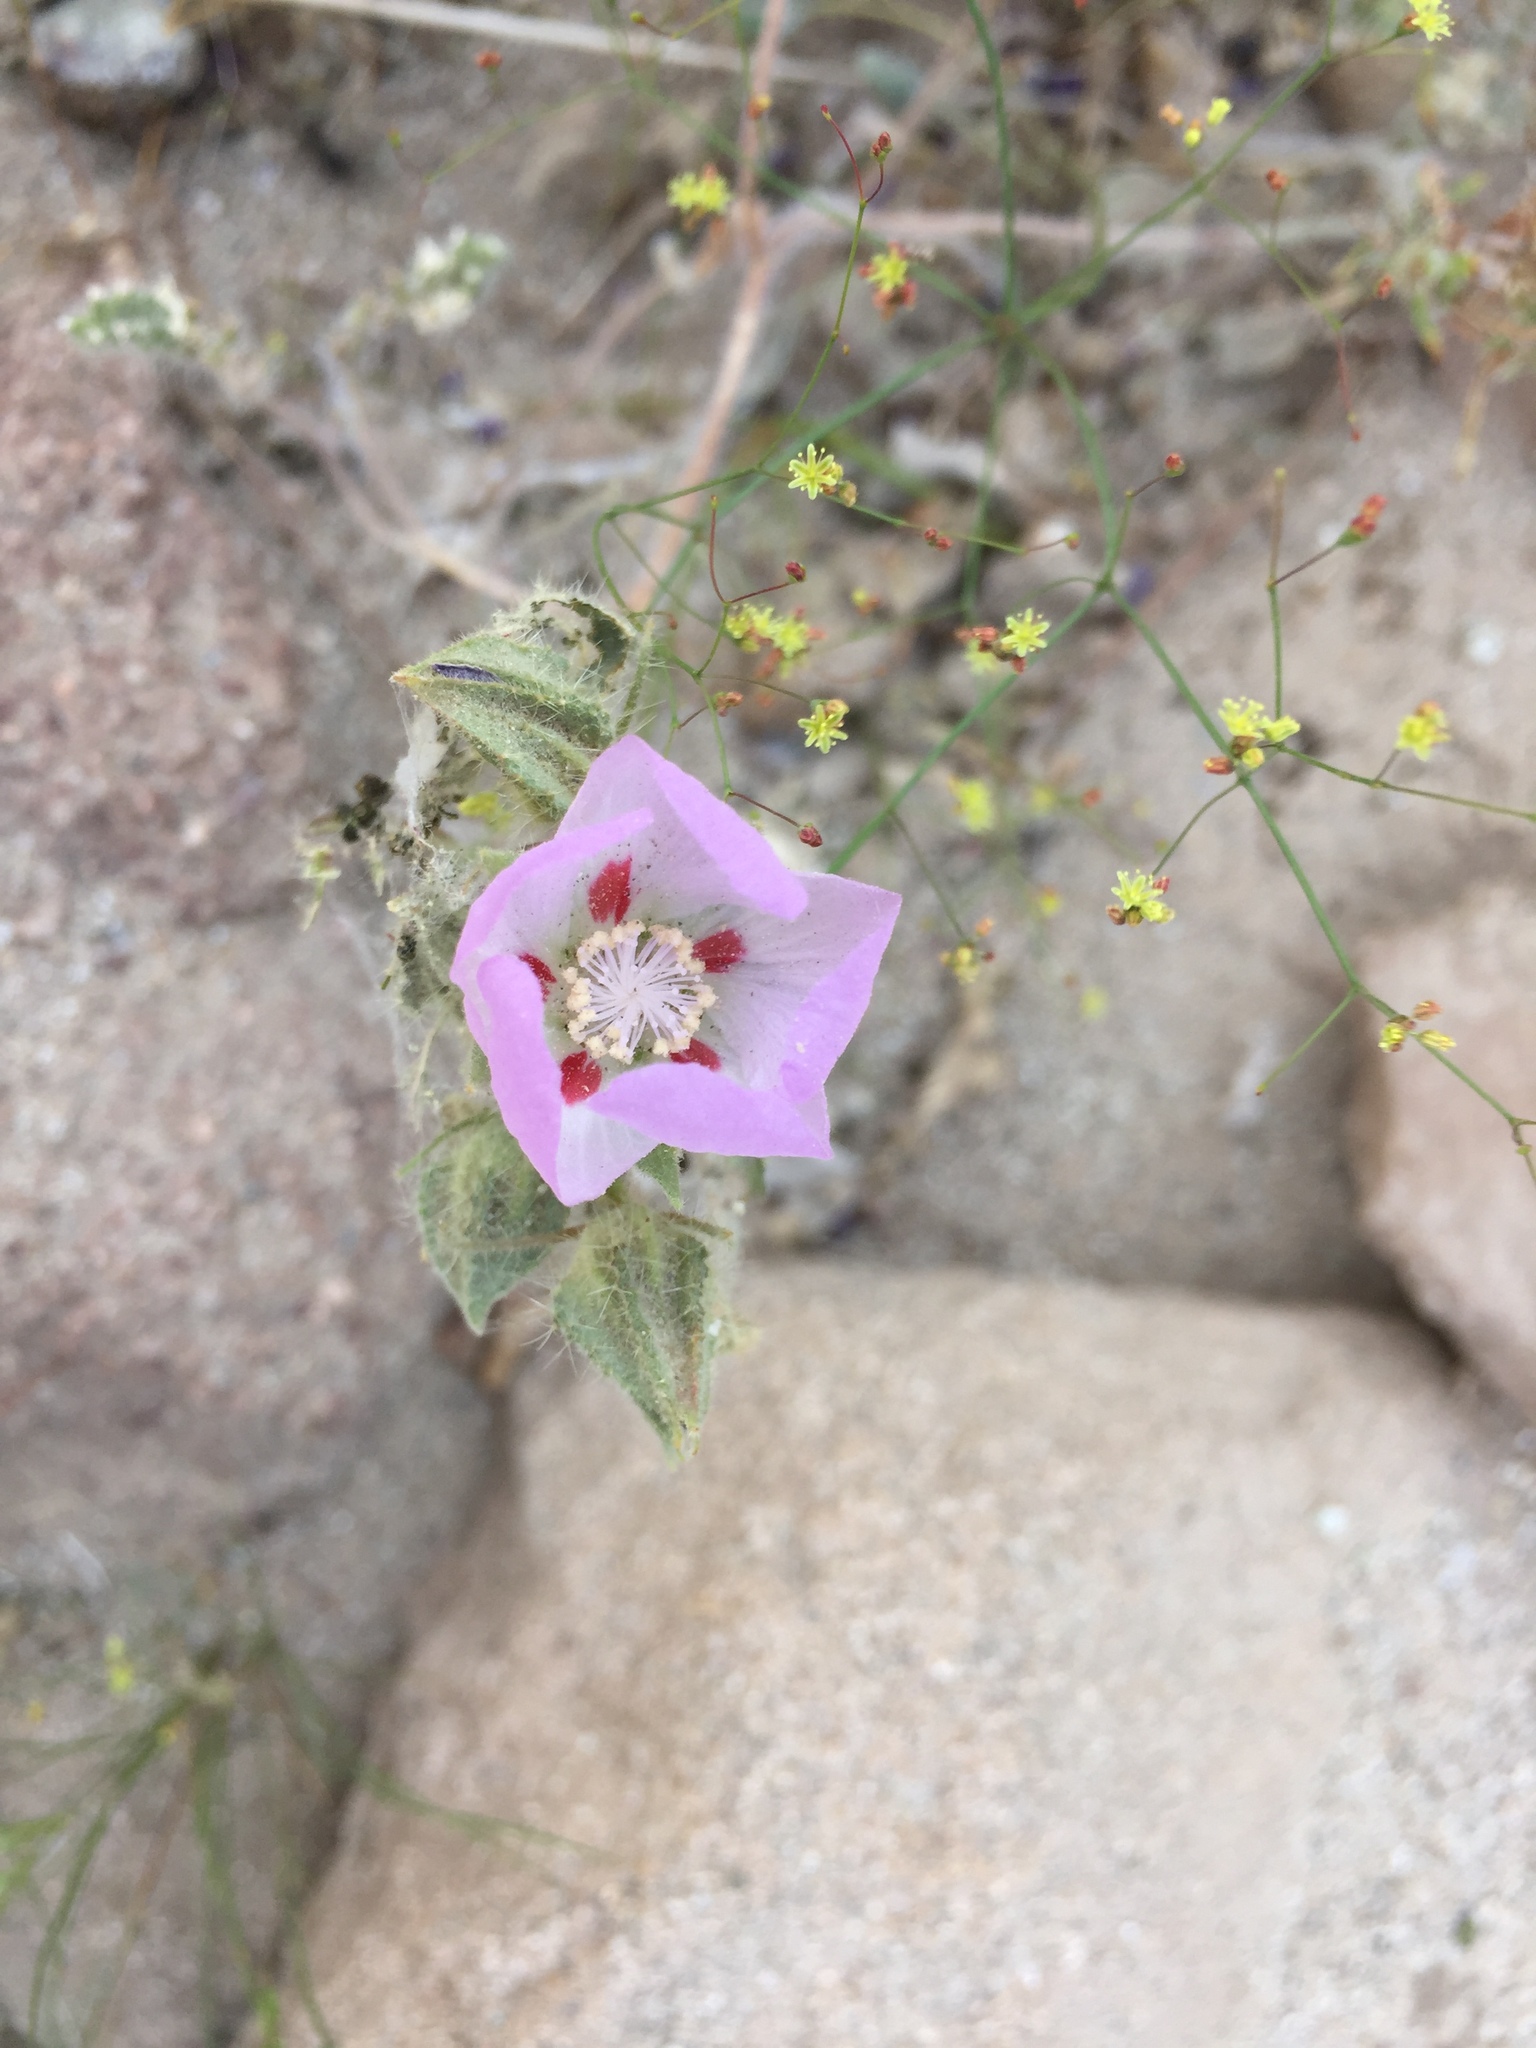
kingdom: Plantae
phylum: Tracheophyta
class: Magnoliopsida
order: Malvales
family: Malvaceae
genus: Eremalche
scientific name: Eremalche rotundifolia
